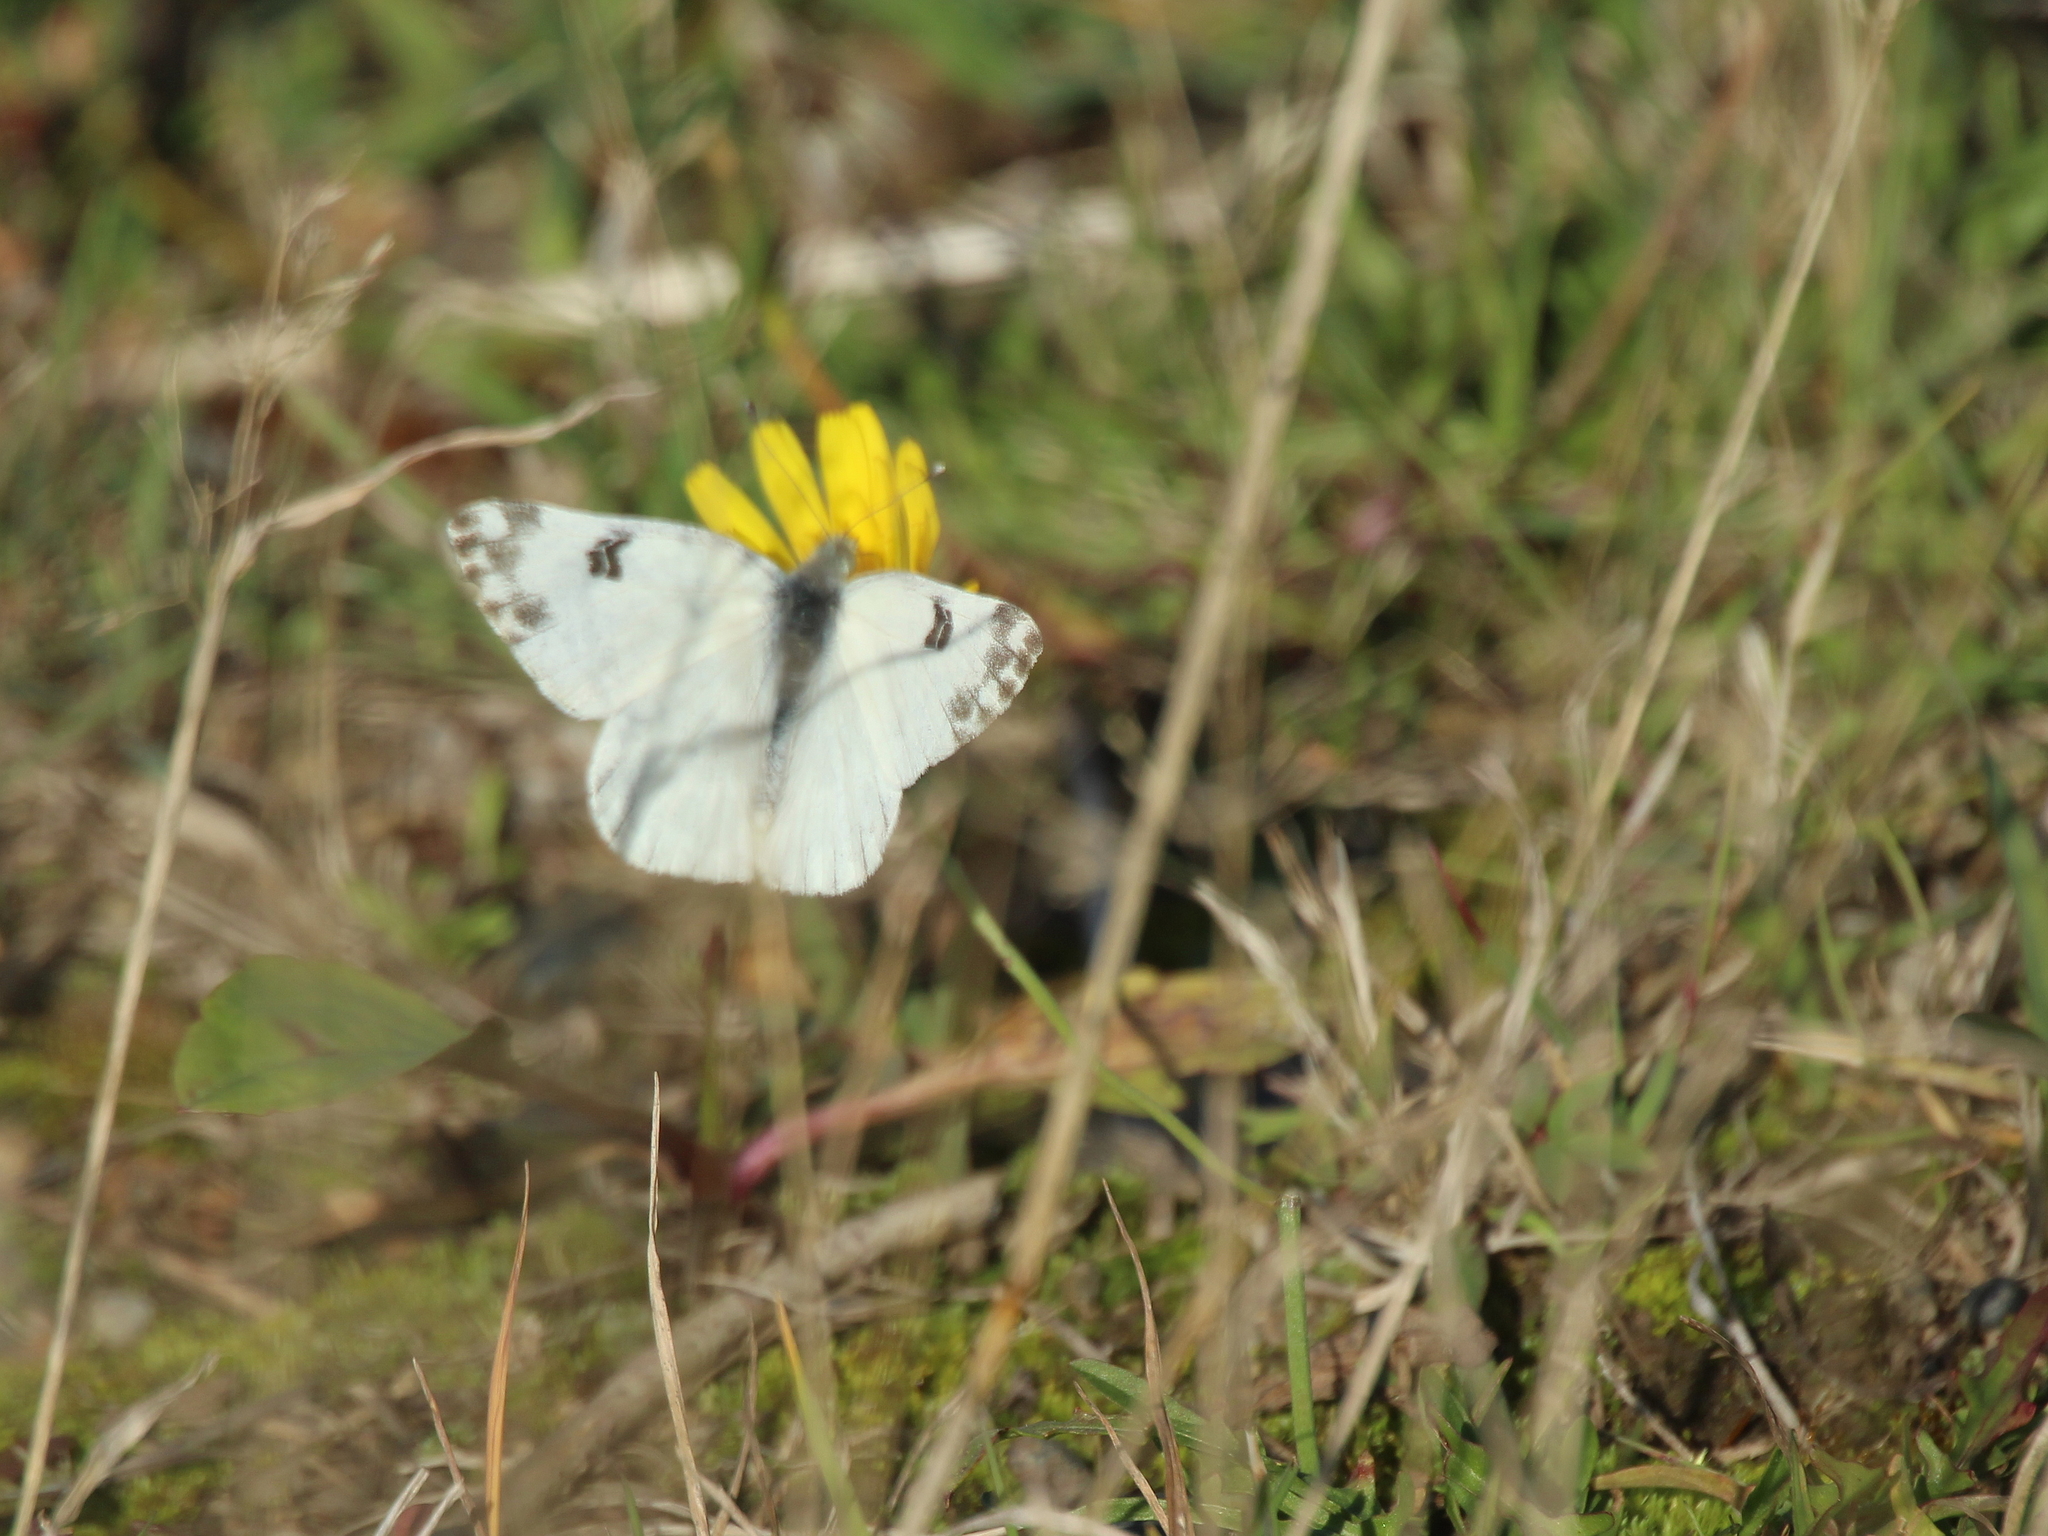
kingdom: Animalia
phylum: Arthropoda
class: Insecta
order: Lepidoptera
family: Pieridae
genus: Pontia
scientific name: Pontia edusa
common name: Eastern bath white
